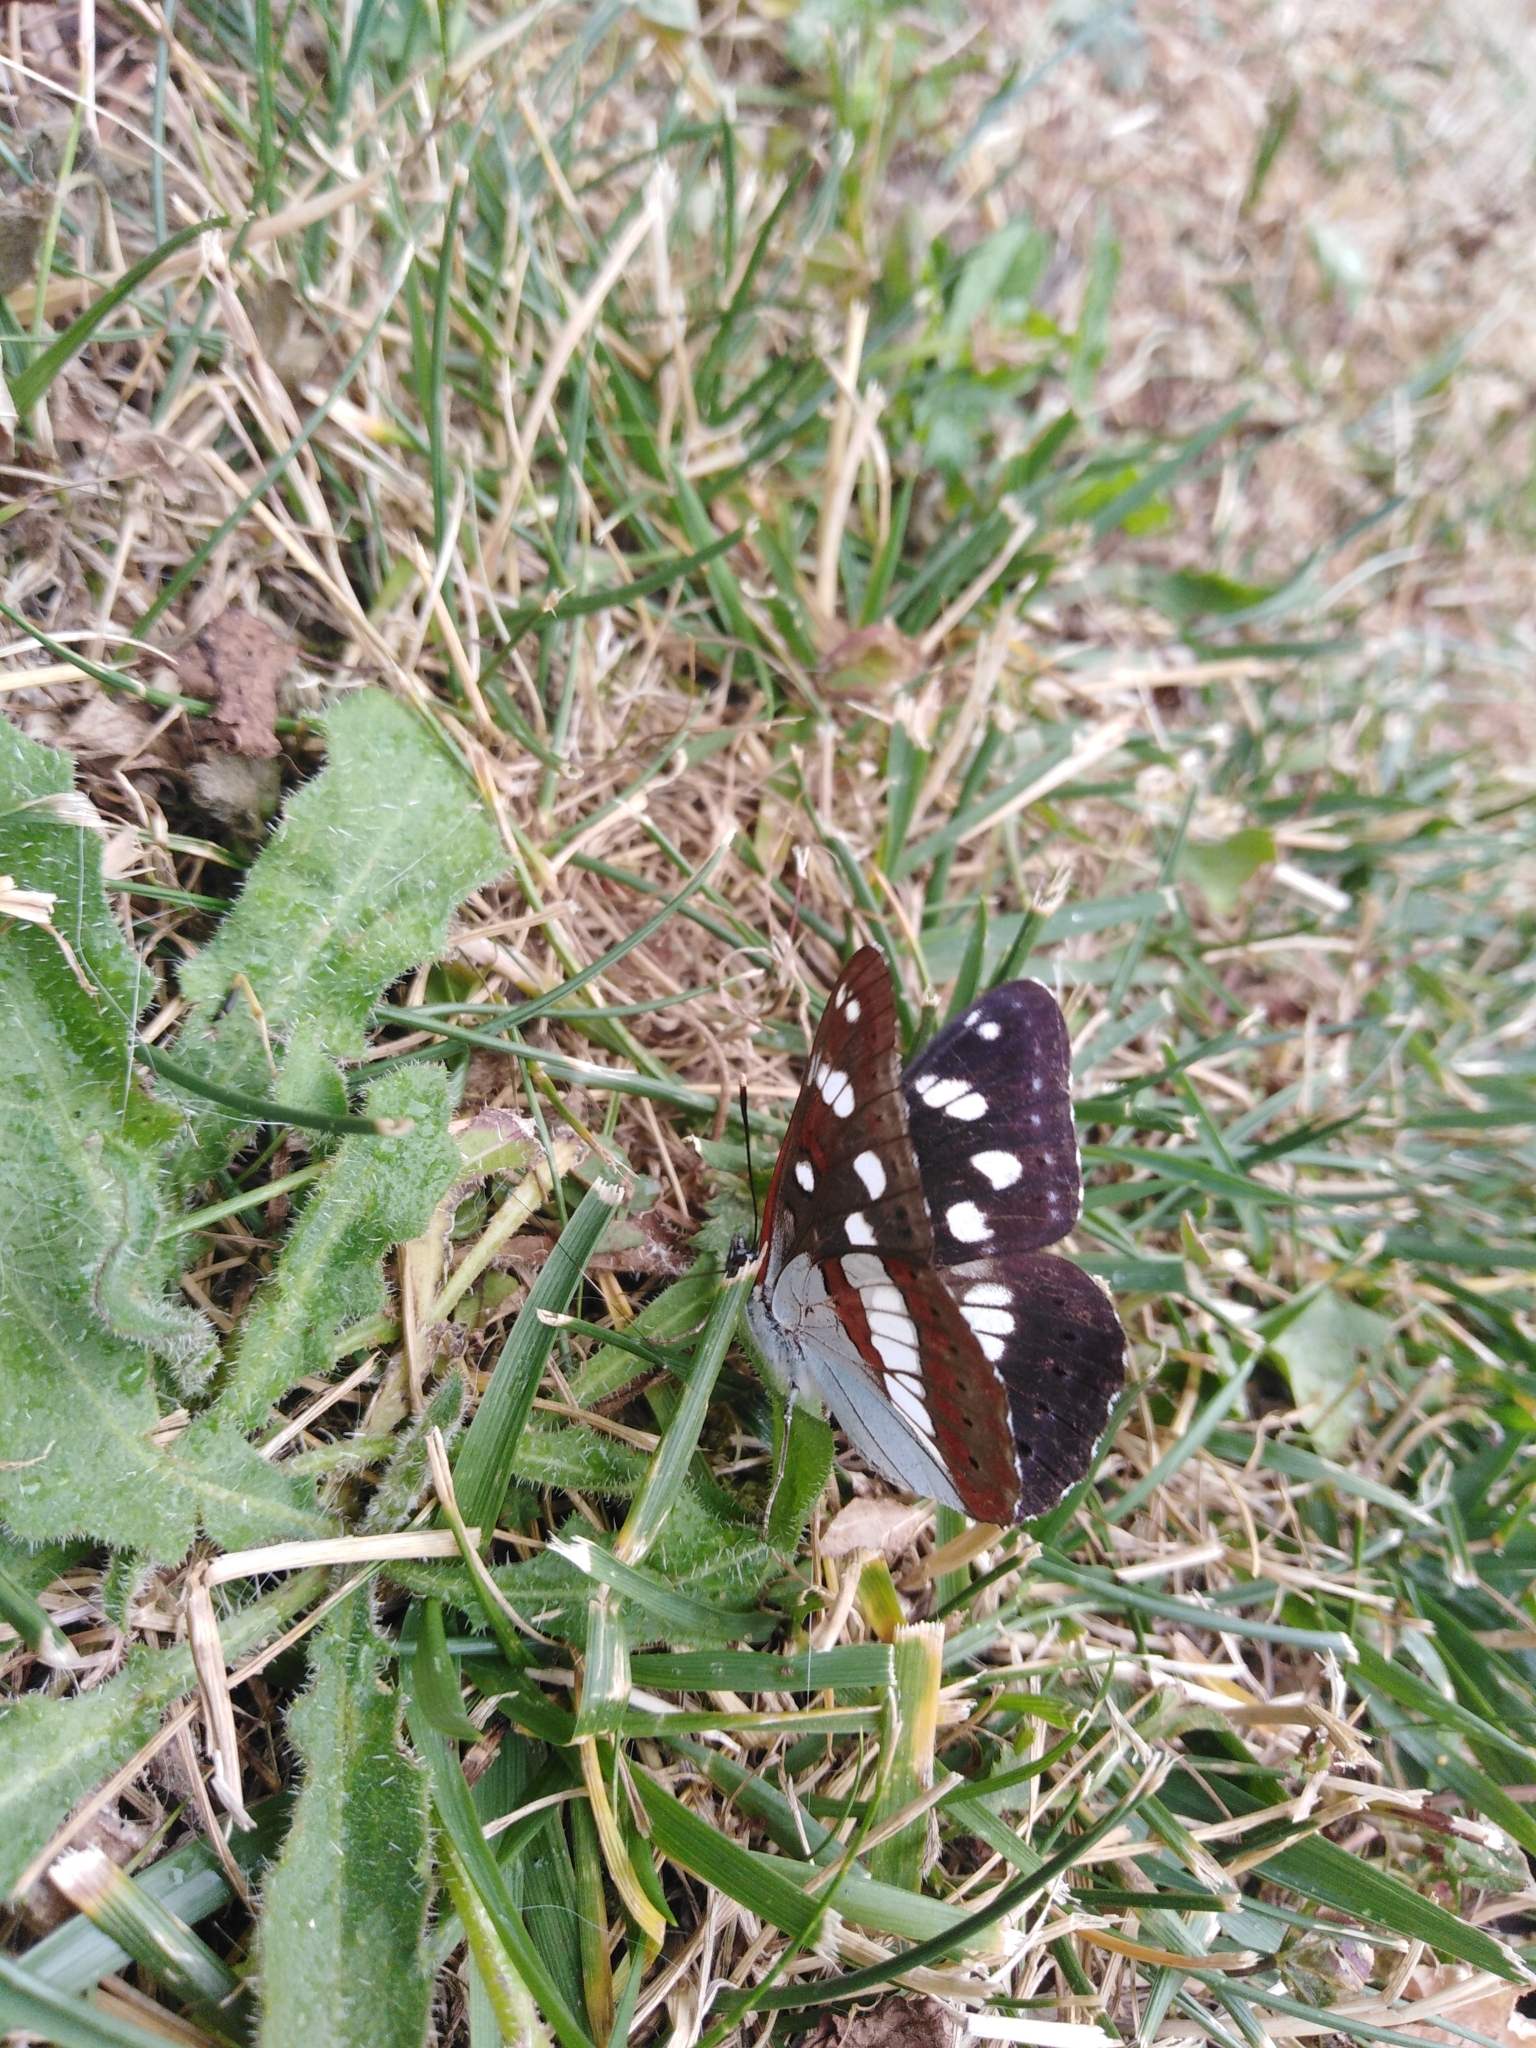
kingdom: Animalia
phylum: Arthropoda
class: Insecta
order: Lepidoptera
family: Nymphalidae
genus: Limenitis
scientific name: Limenitis reducta
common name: Southern white admiral
